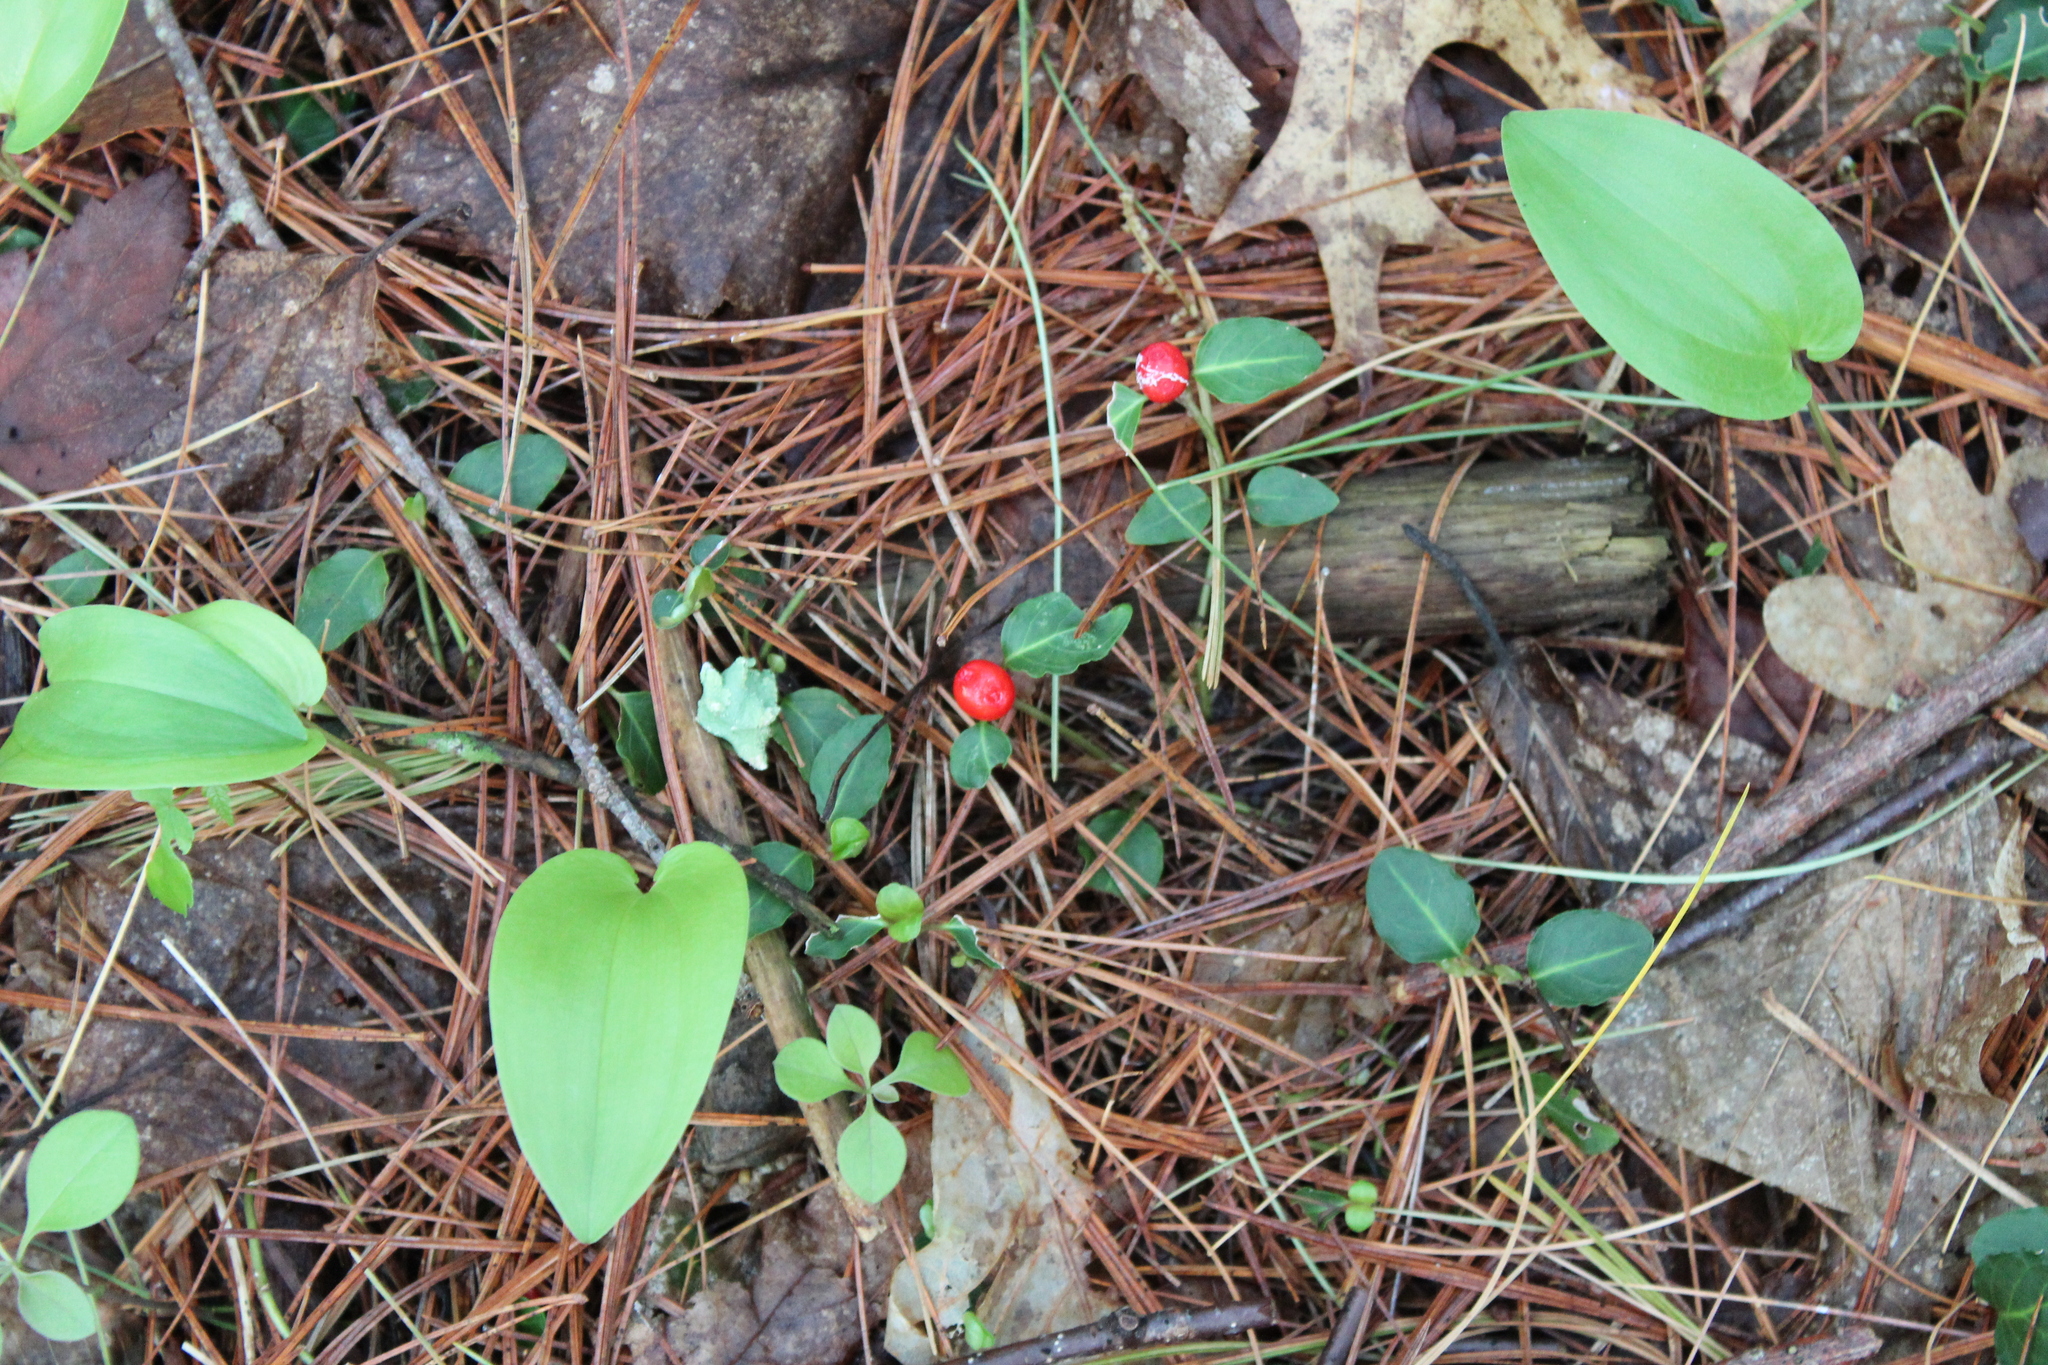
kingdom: Plantae
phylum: Tracheophyta
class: Magnoliopsida
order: Gentianales
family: Rubiaceae
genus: Mitchella
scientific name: Mitchella repens
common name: Partridge-berry
